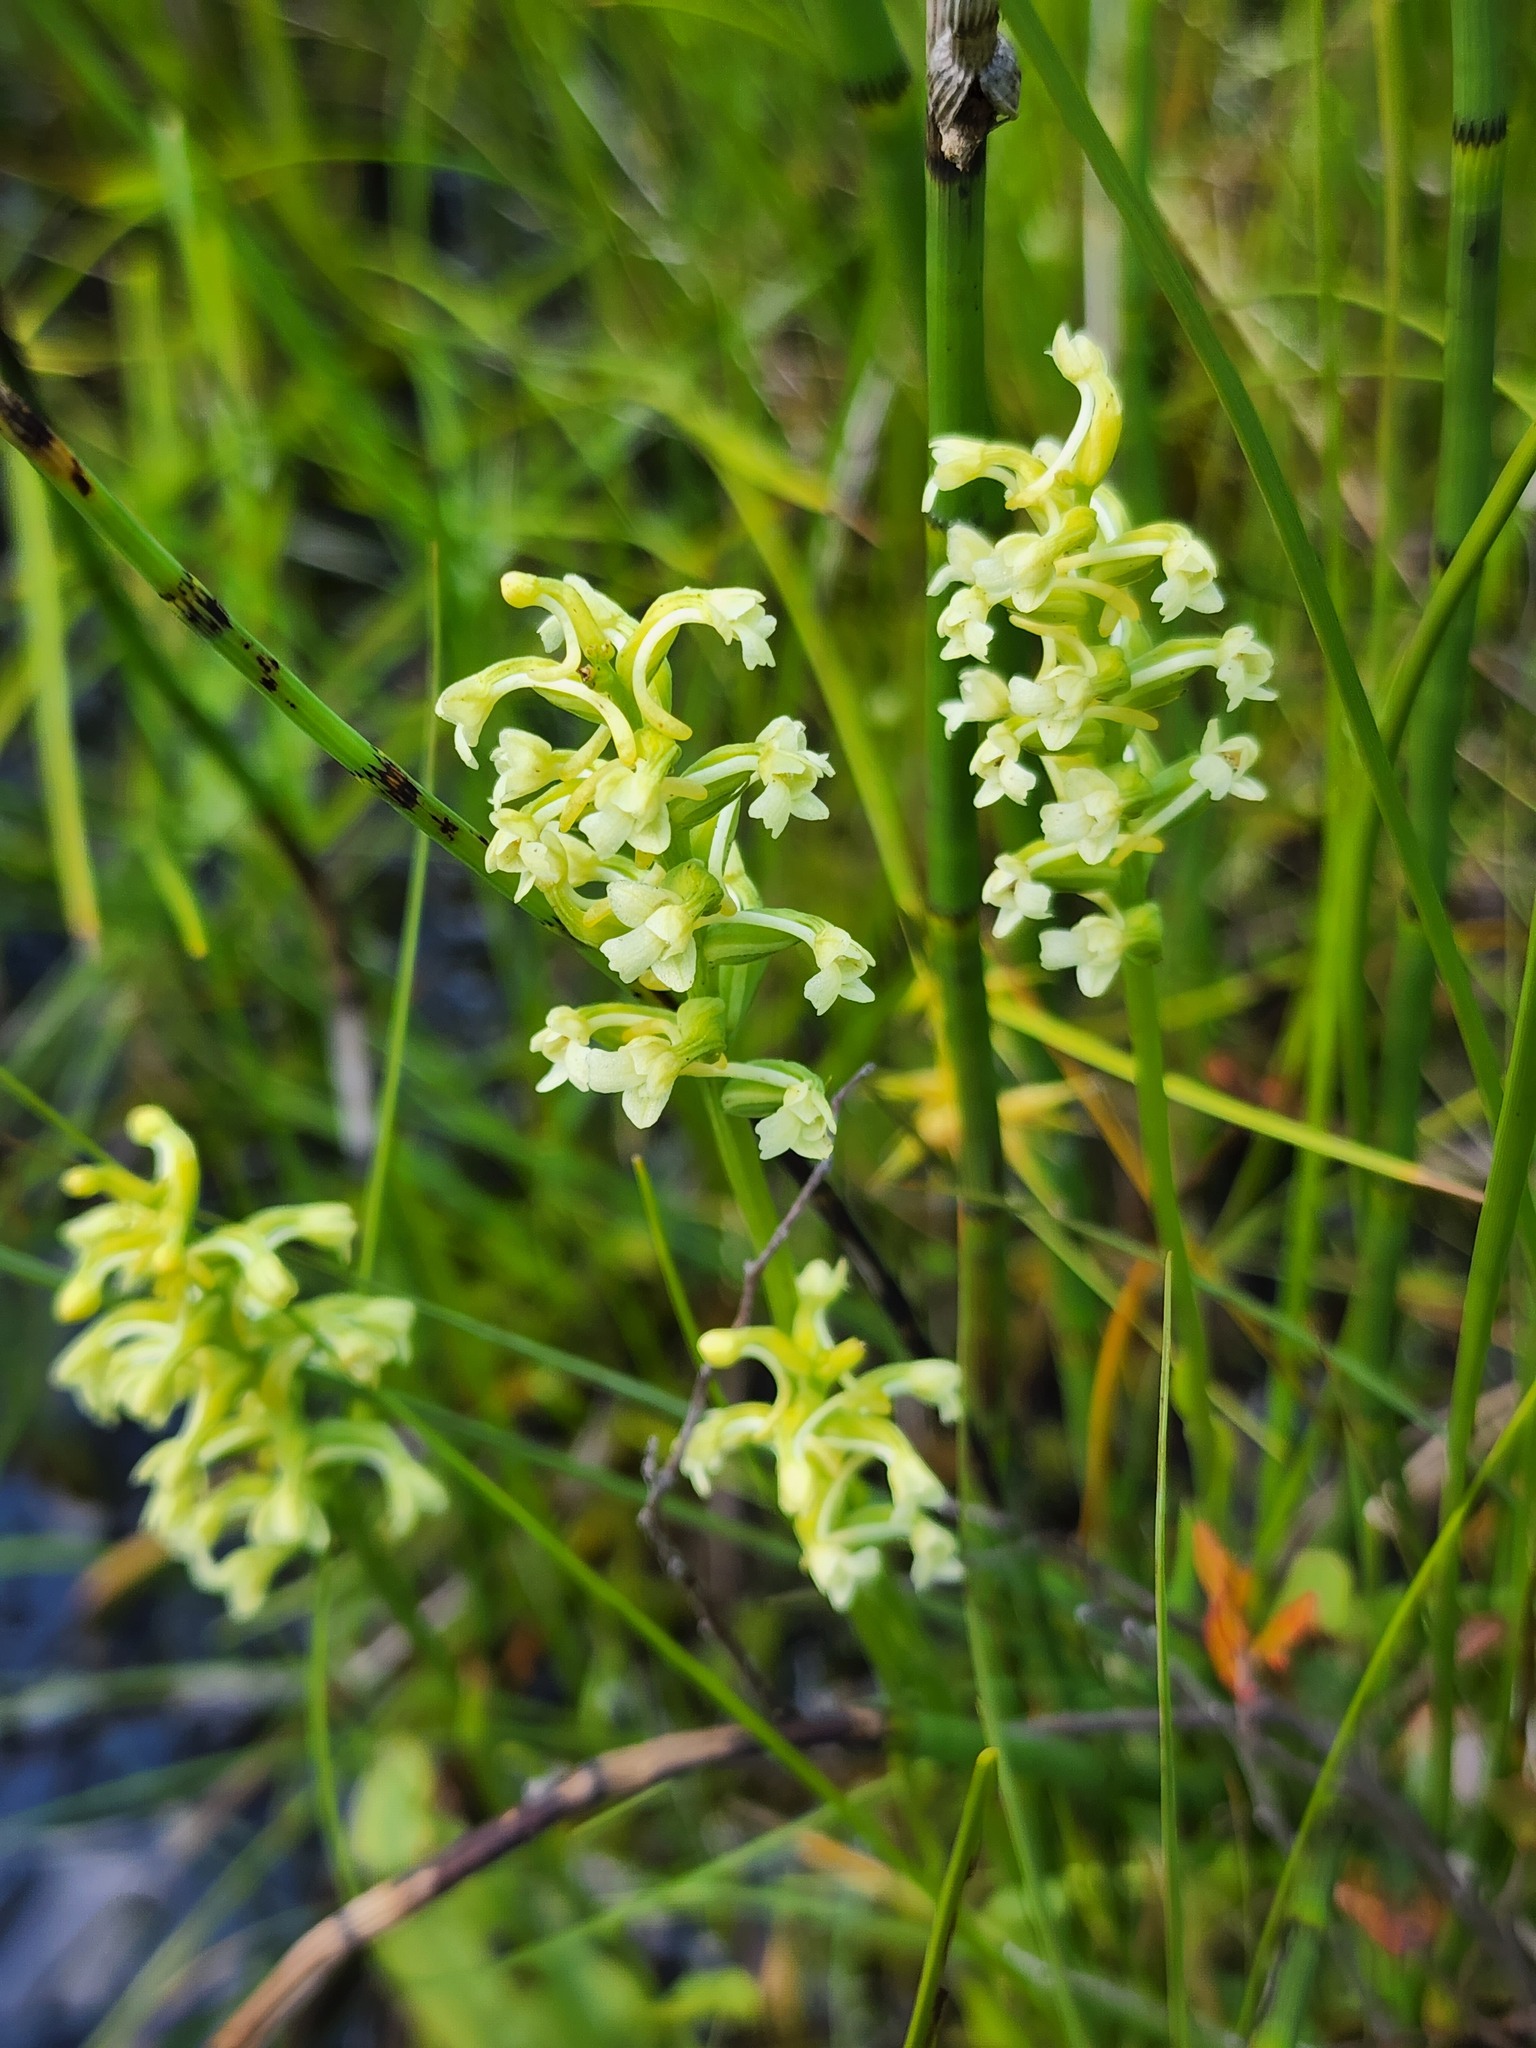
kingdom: Plantae
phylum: Tracheophyta
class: Liliopsida
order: Asparagales
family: Orchidaceae
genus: Platanthera
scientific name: Platanthera clavellata
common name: Club-spur orchid
